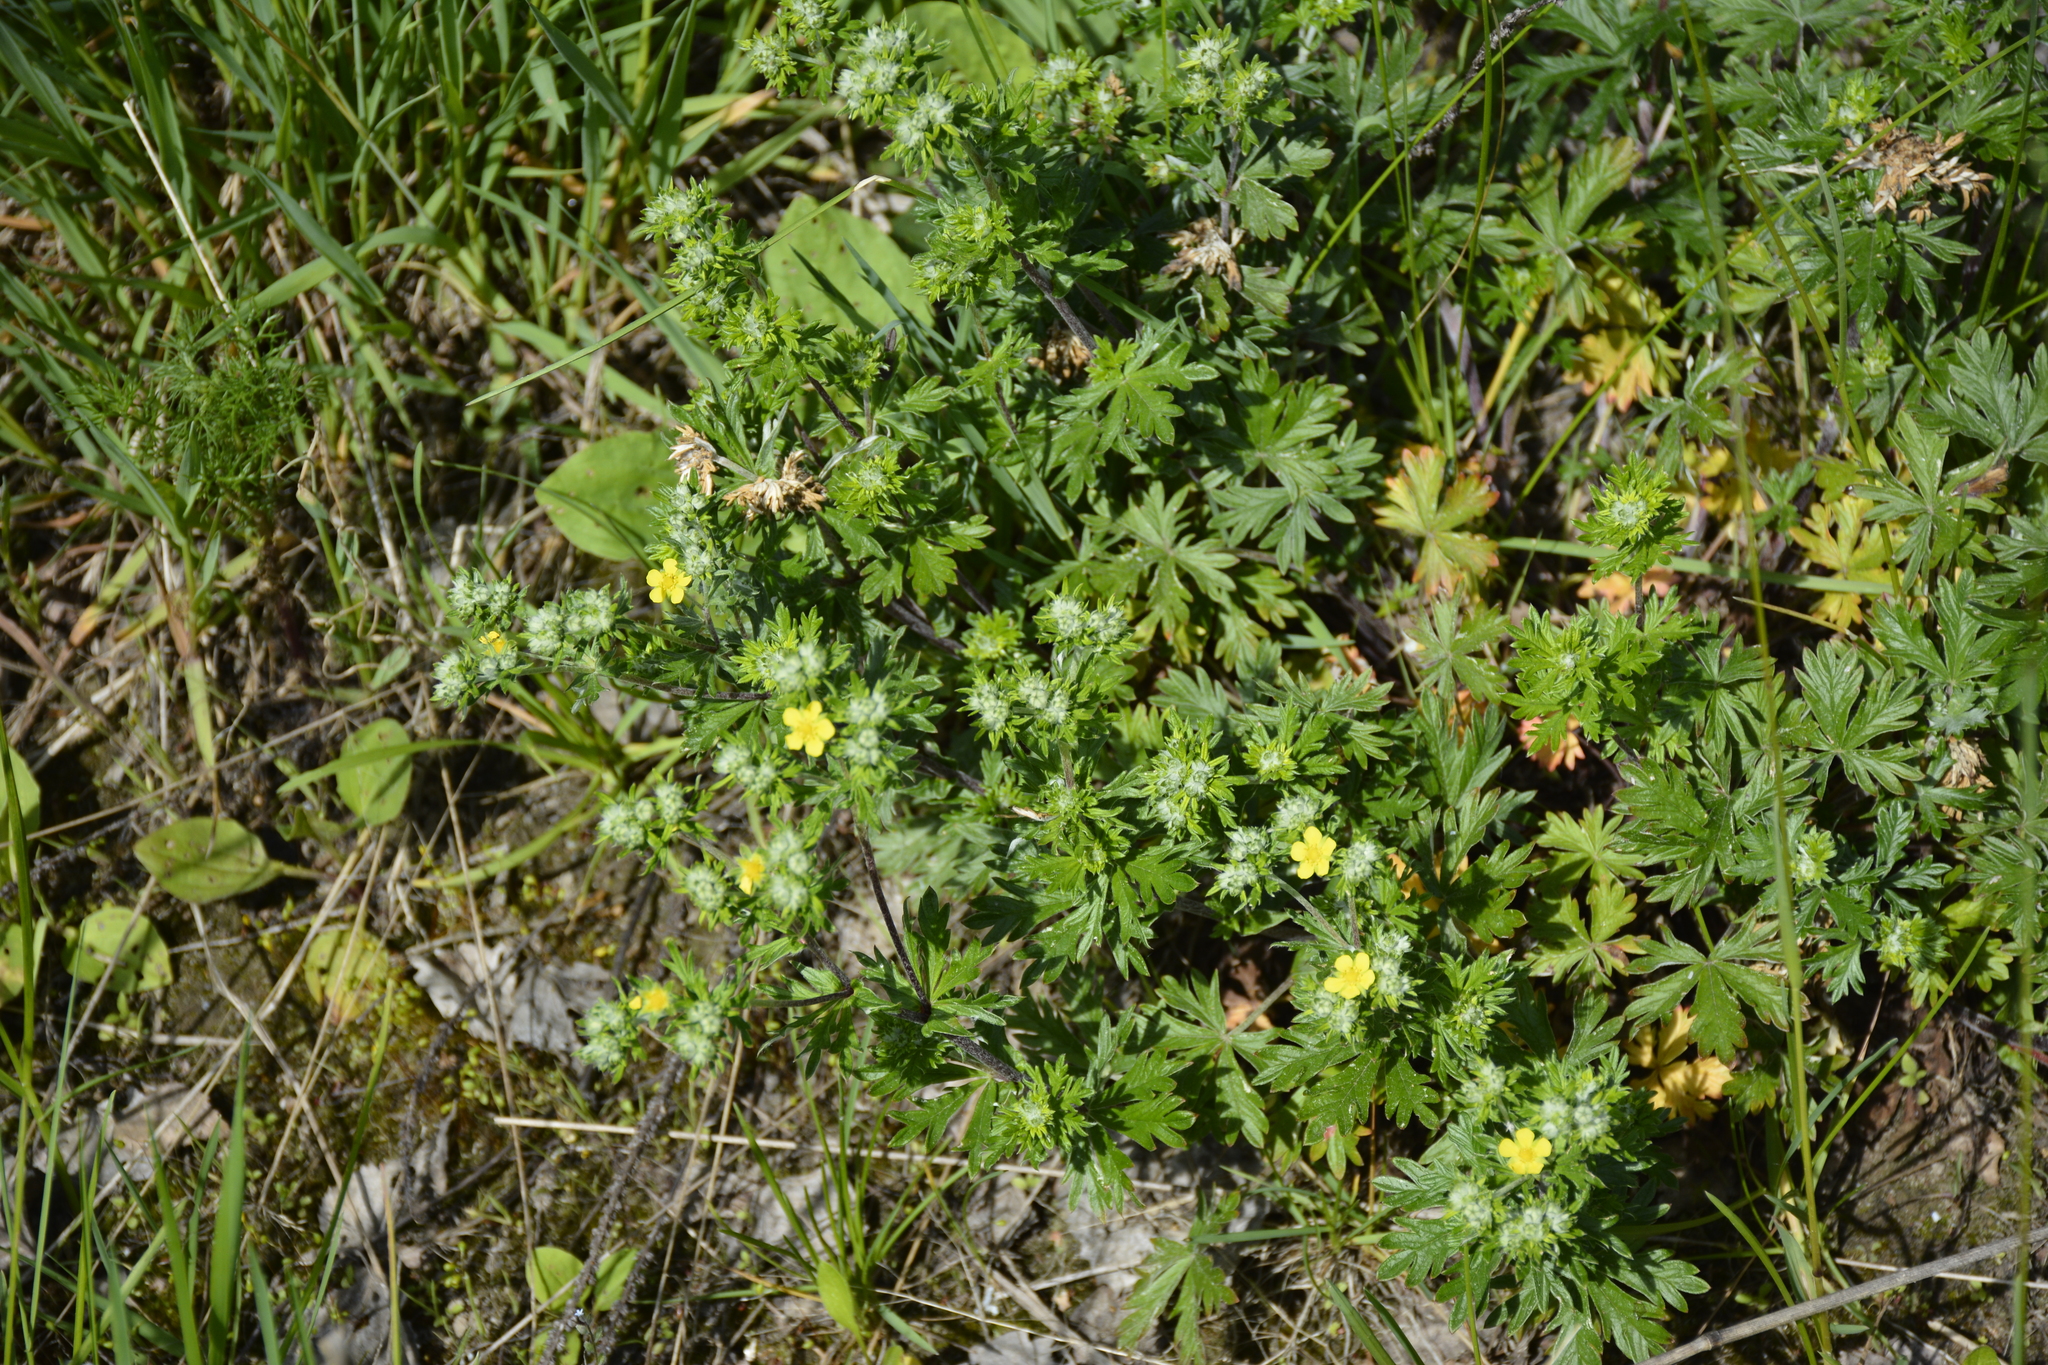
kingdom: Plantae
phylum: Tracheophyta
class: Magnoliopsida
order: Rosales
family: Rosaceae
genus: Potentilla
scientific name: Potentilla argentea
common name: Hoary cinquefoil
